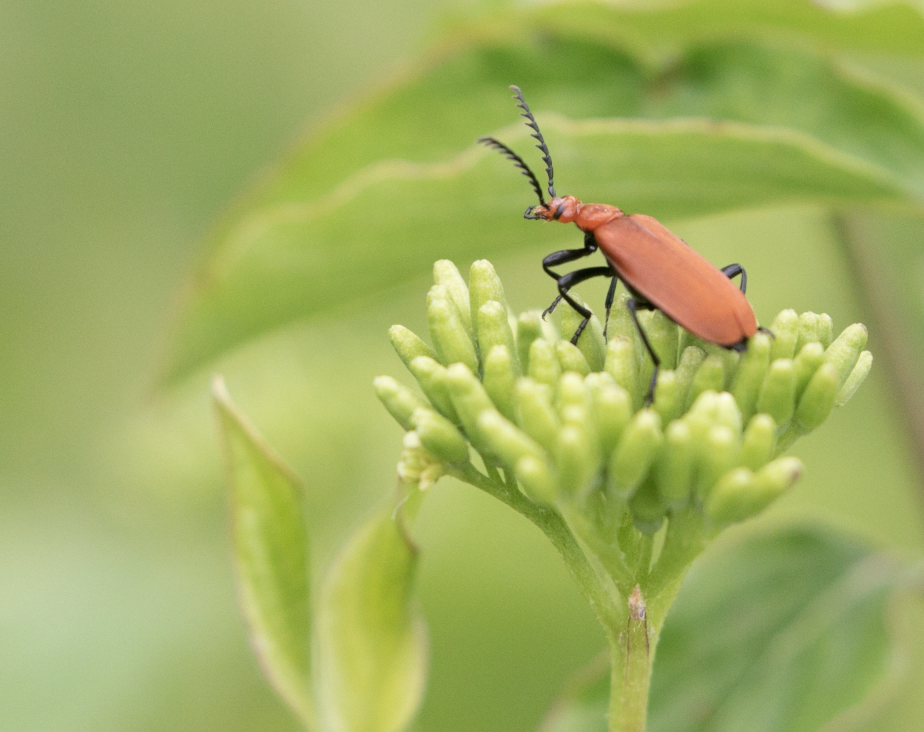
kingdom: Animalia
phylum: Arthropoda
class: Insecta
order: Coleoptera
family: Pyrochroidae
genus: Pyrochroa
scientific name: Pyrochroa serraticornis
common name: Red-headed cardinal beetle
